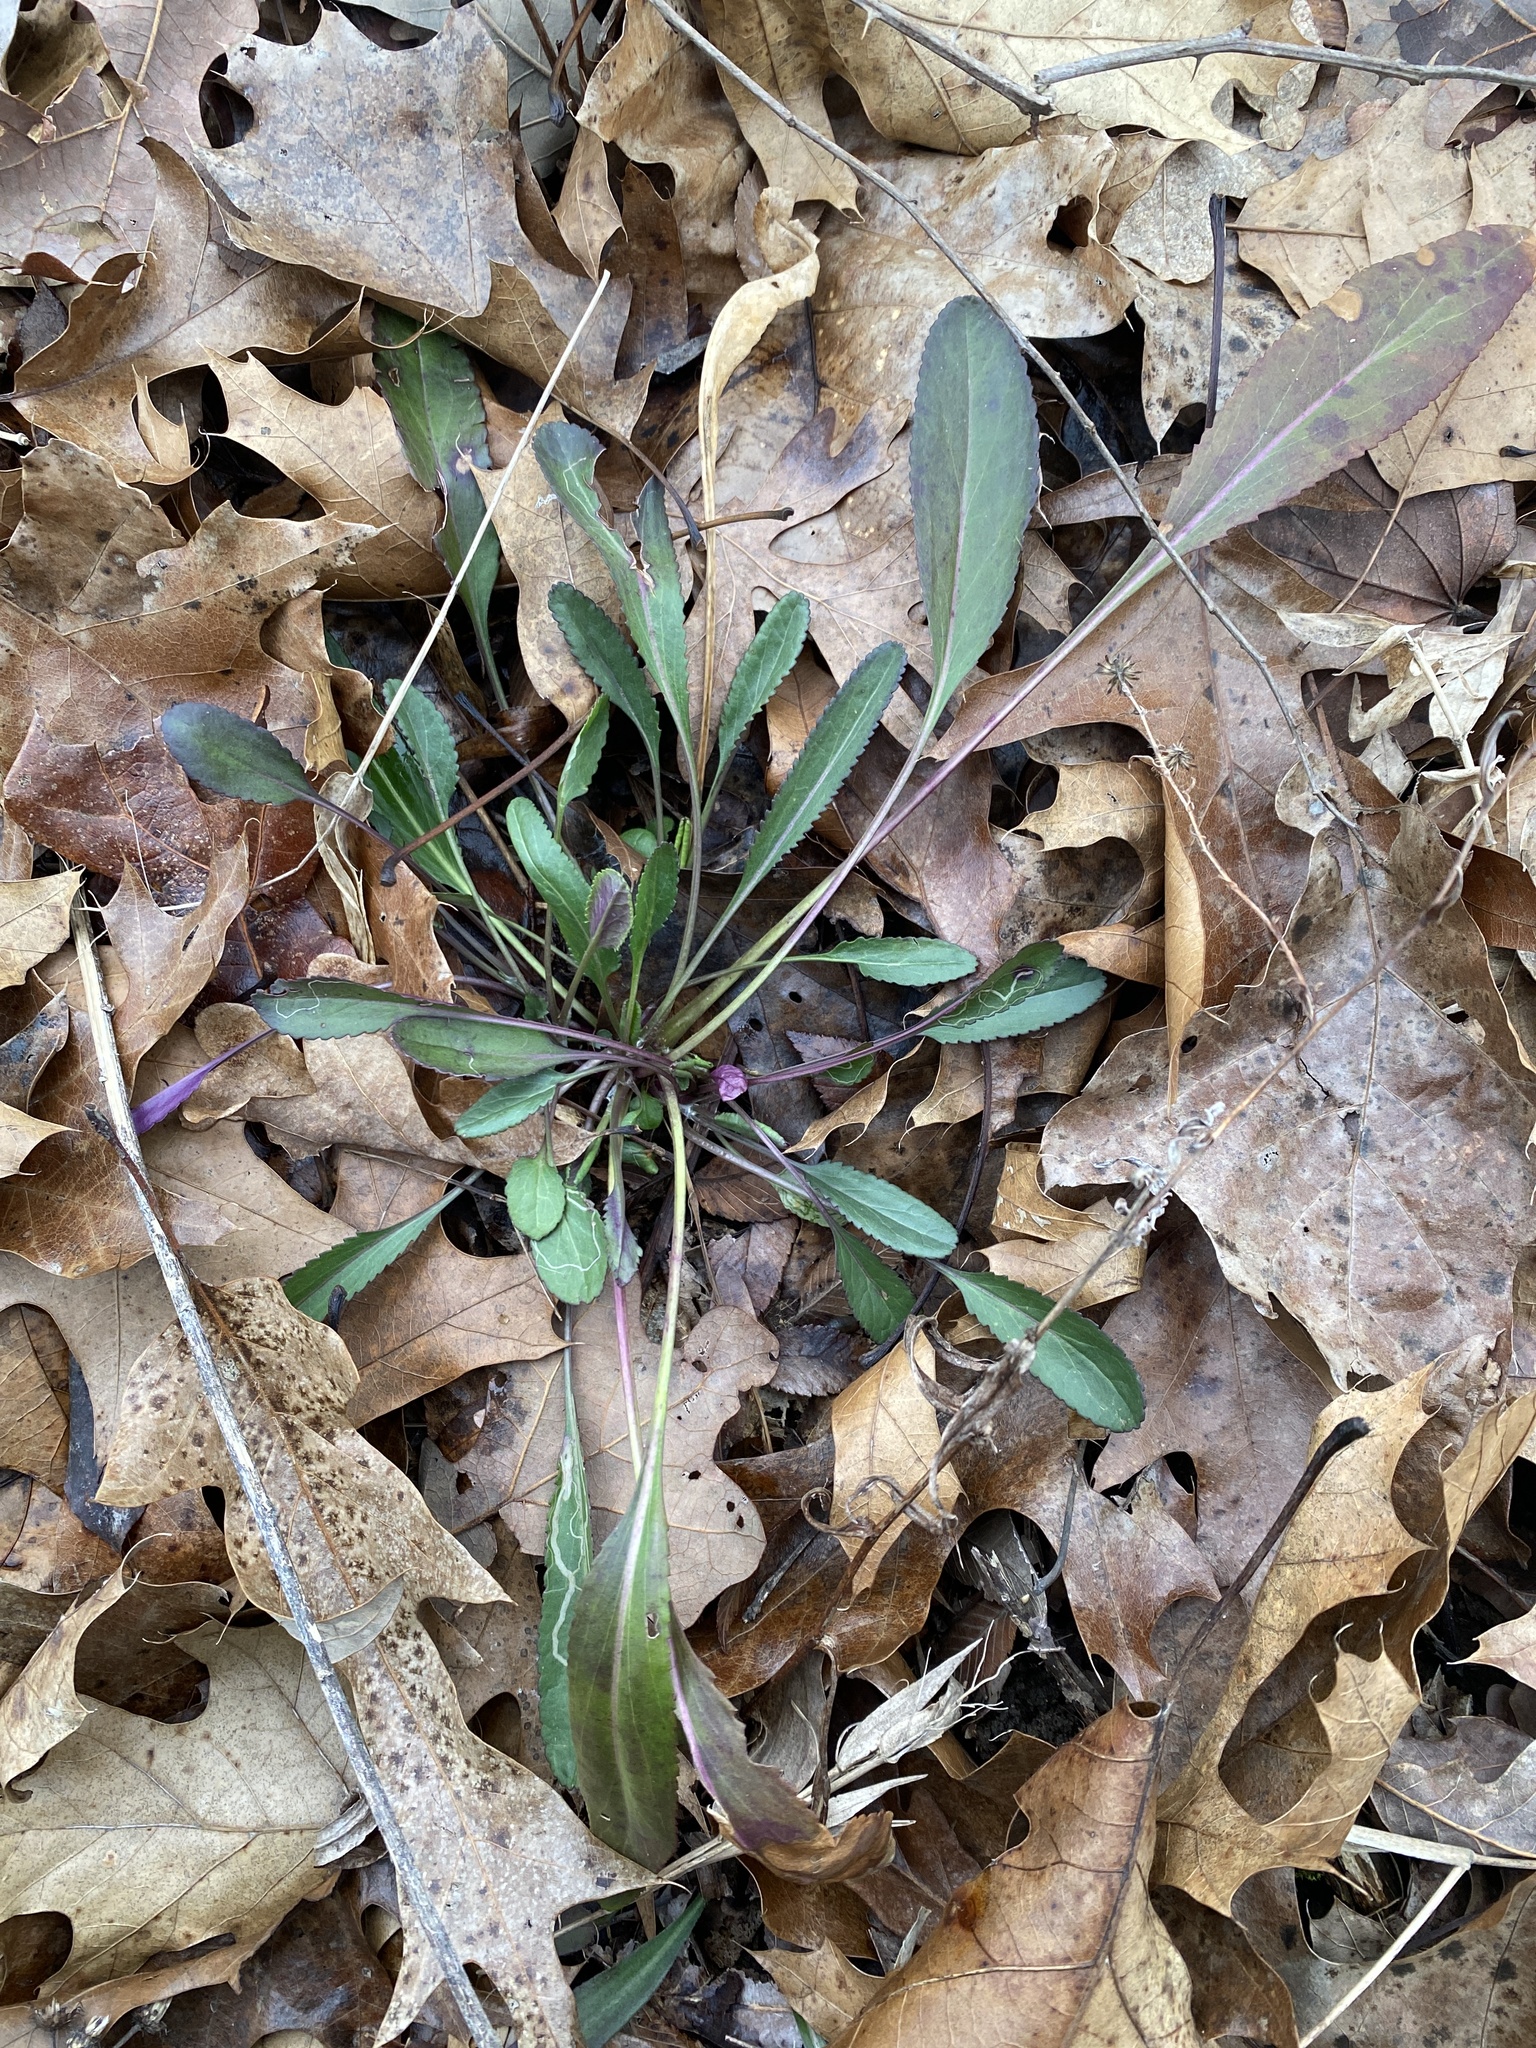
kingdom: Plantae
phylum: Tracheophyta
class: Magnoliopsida
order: Asterales
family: Asteraceae
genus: Packera
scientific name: Packera anonyma
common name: Small ragwort
